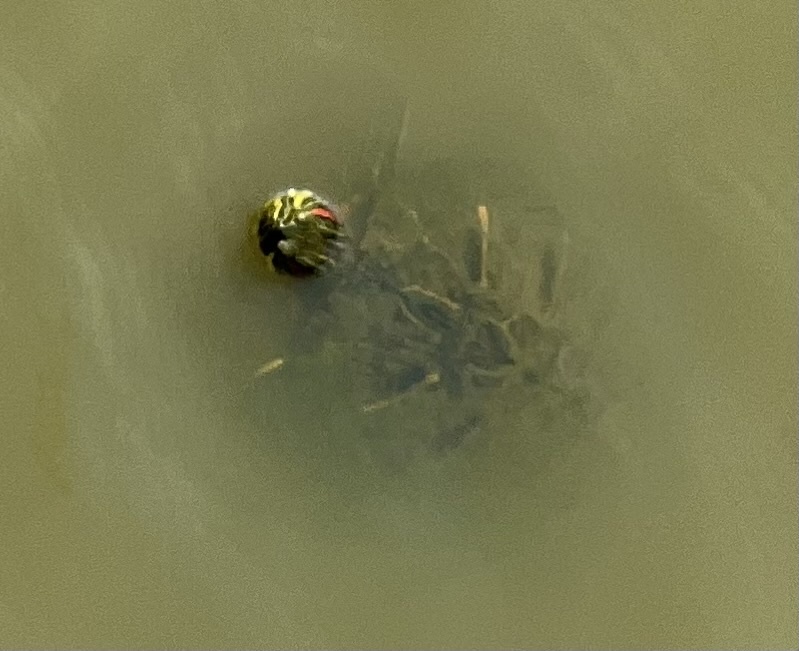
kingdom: Animalia
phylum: Chordata
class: Testudines
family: Emydidae
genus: Trachemys
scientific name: Trachemys scripta
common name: Slider
